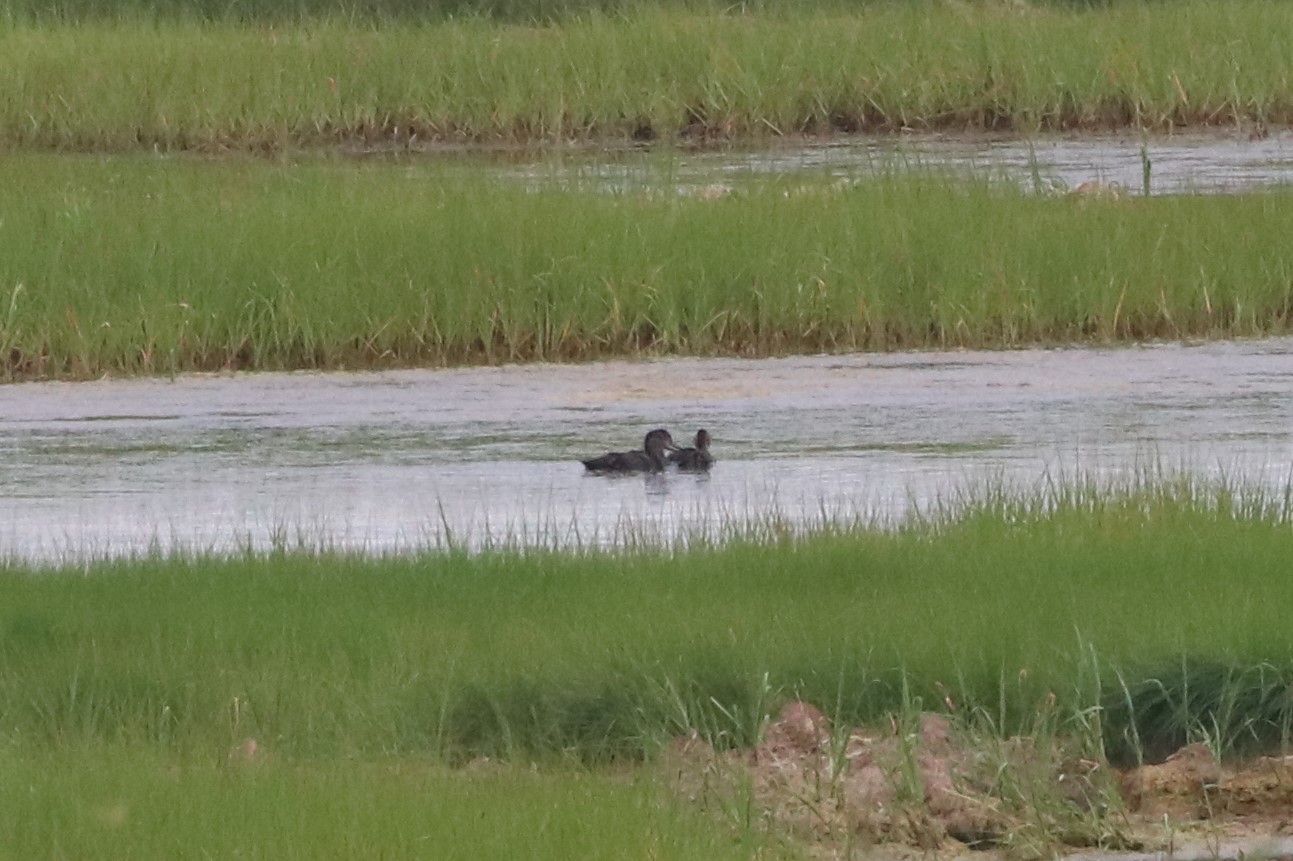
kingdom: Animalia
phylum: Chordata
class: Aves
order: Anseriformes
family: Anatidae
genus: Anas
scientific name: Anas rubripes
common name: American black duck
